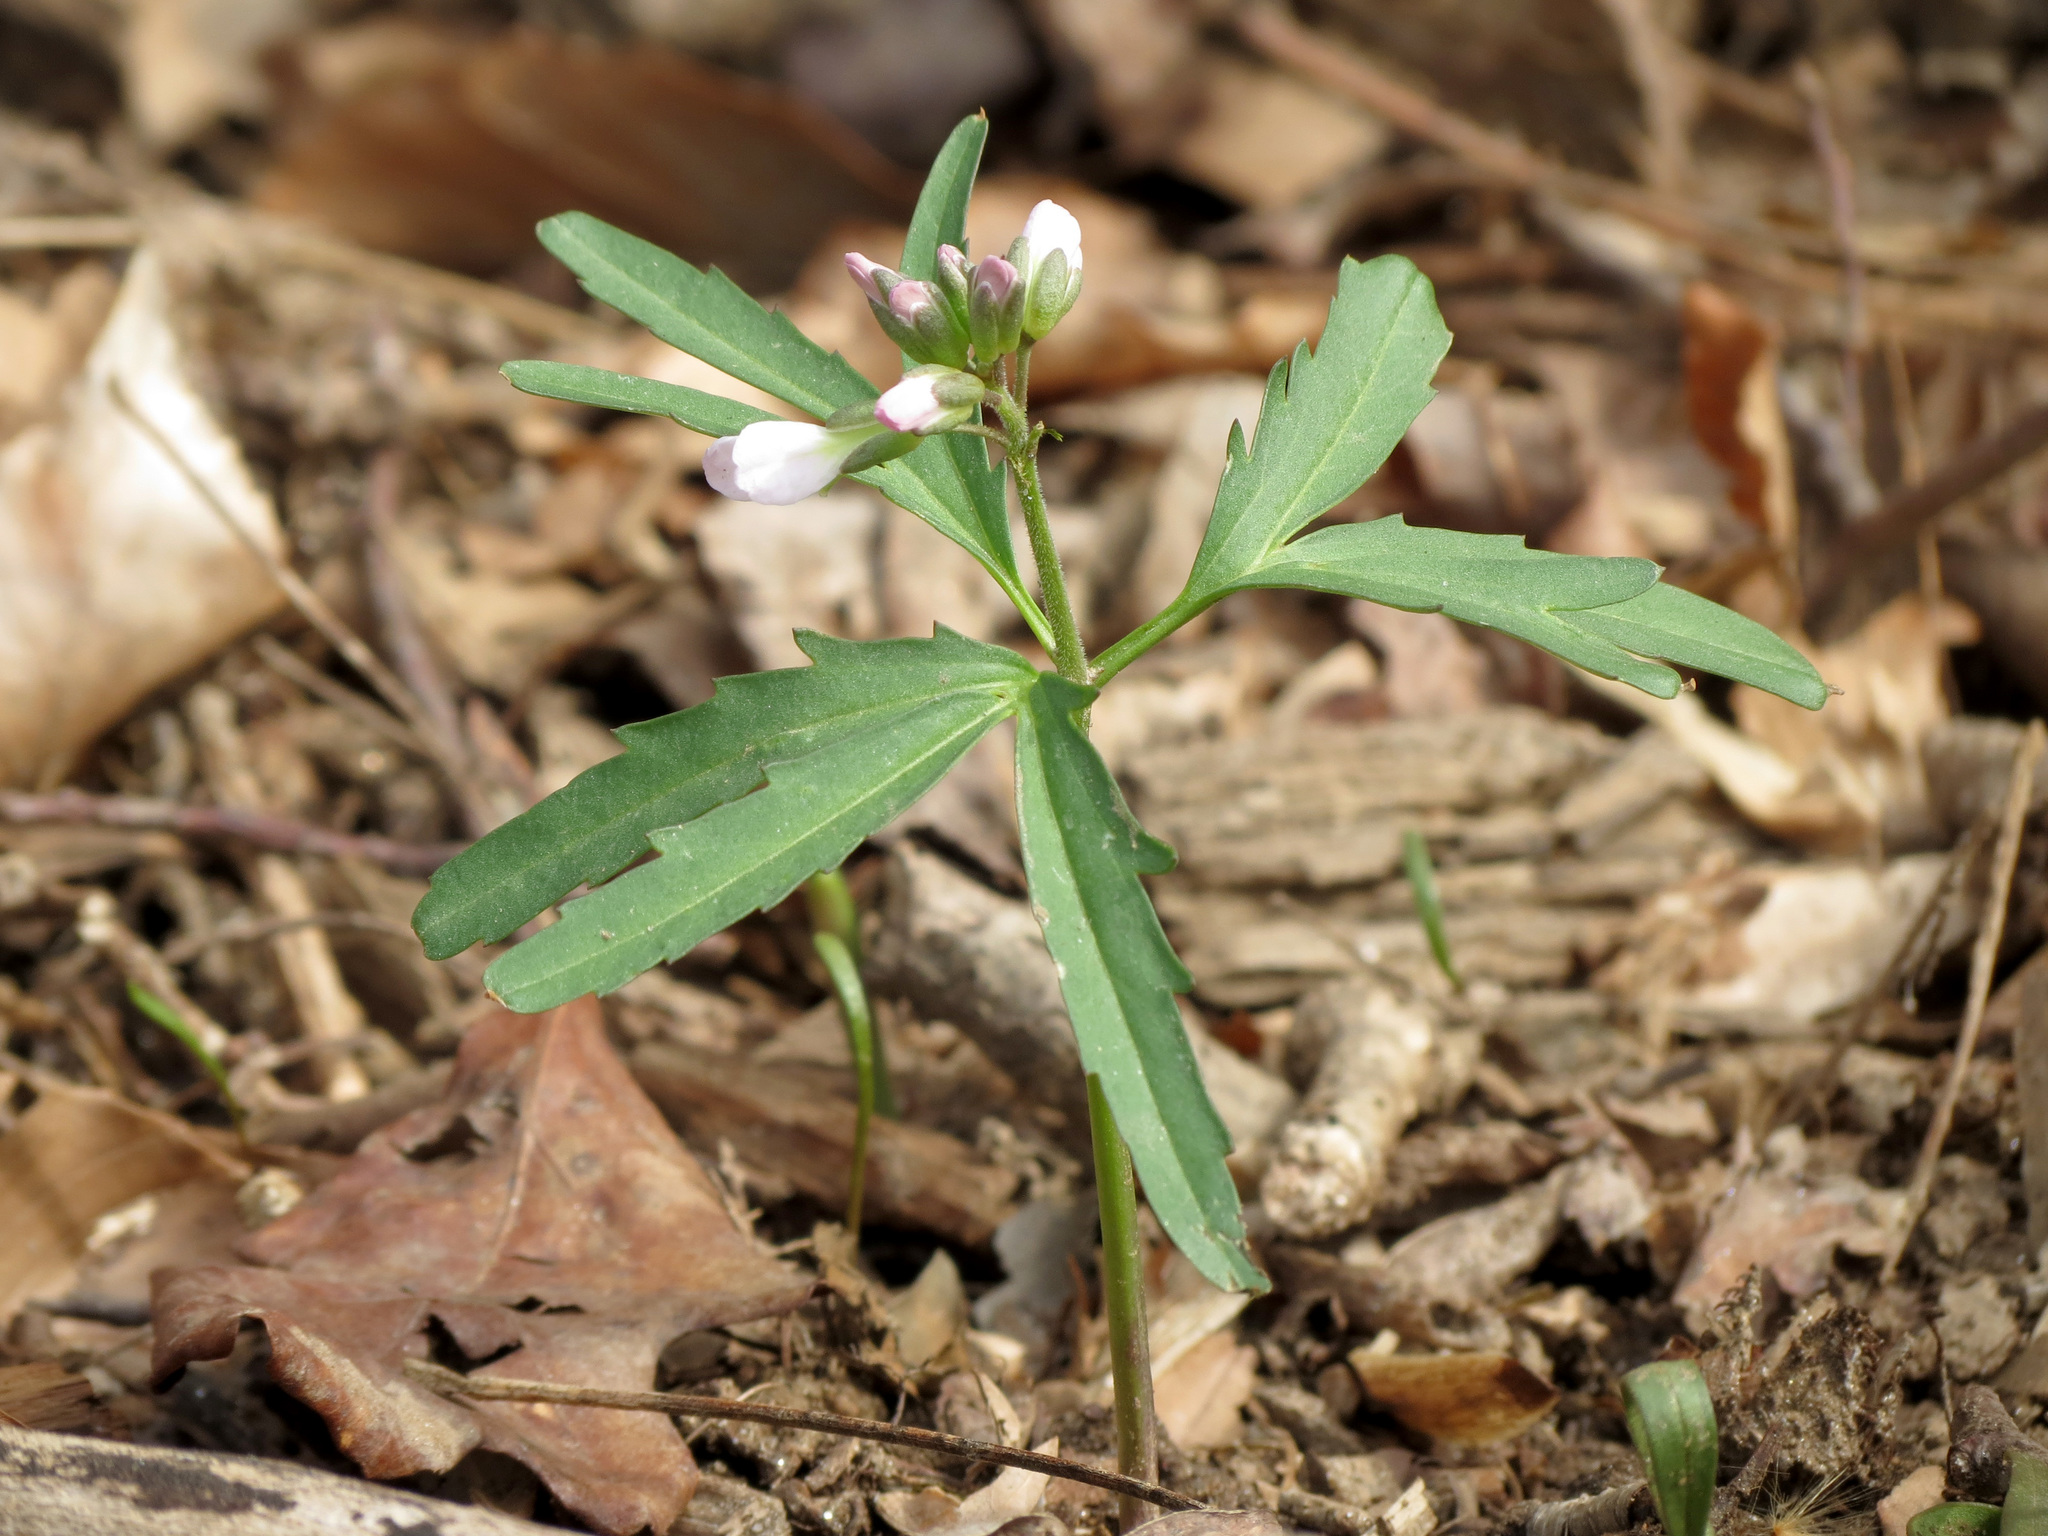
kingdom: Plantae
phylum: Tracheophyta
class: Magnoliopsida
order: Brassicales
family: Brassicaceae
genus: Cardamine
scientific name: Cardamine concatenata
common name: Cut-leaf toothcup
